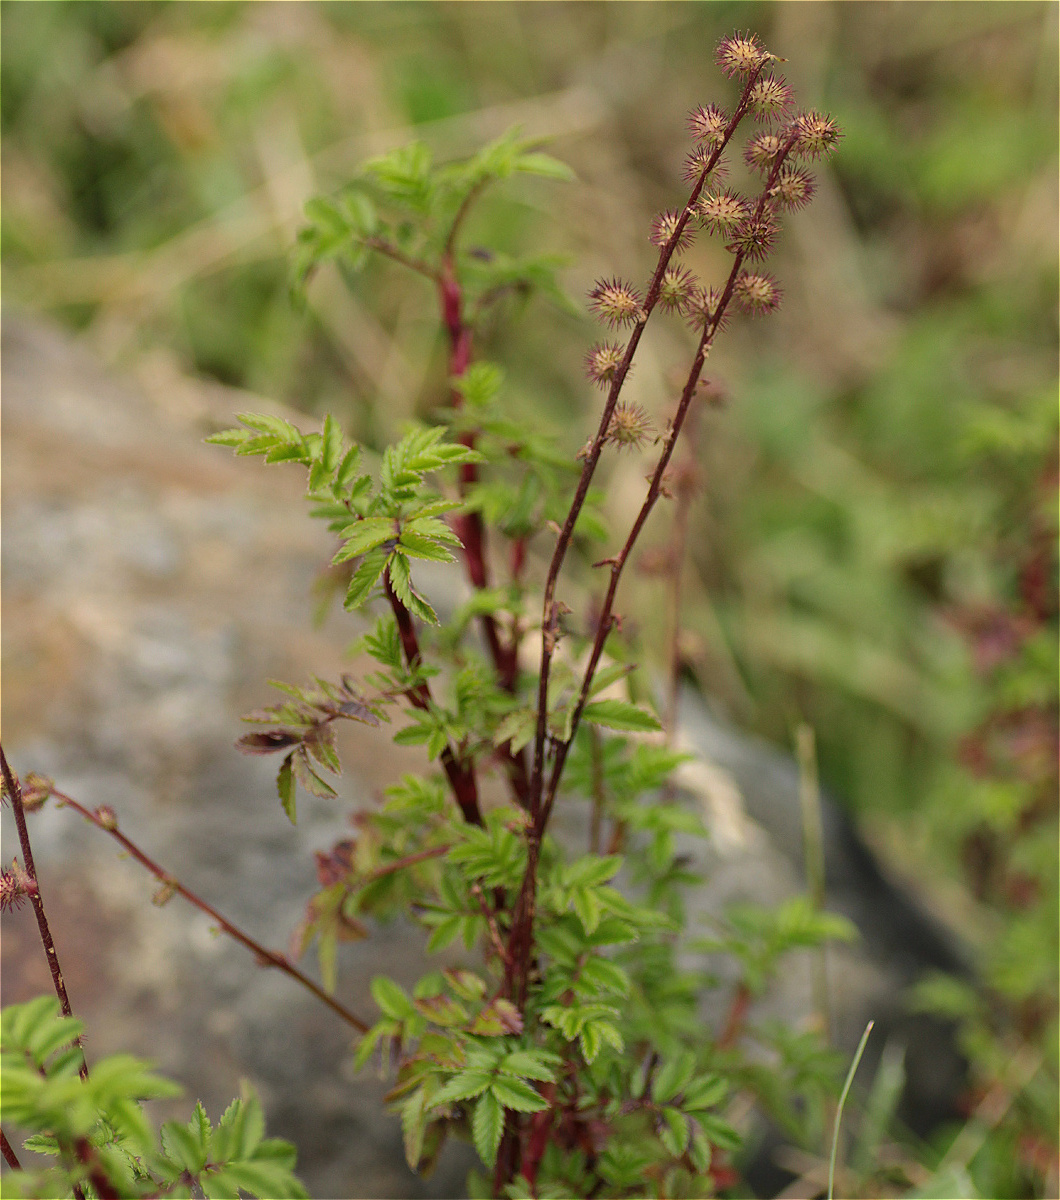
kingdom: Plantae
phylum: Tracheophyta
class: Magnoliopsida
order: Rosales
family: Rosaceae
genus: Acaena
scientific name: Acaena elongata
